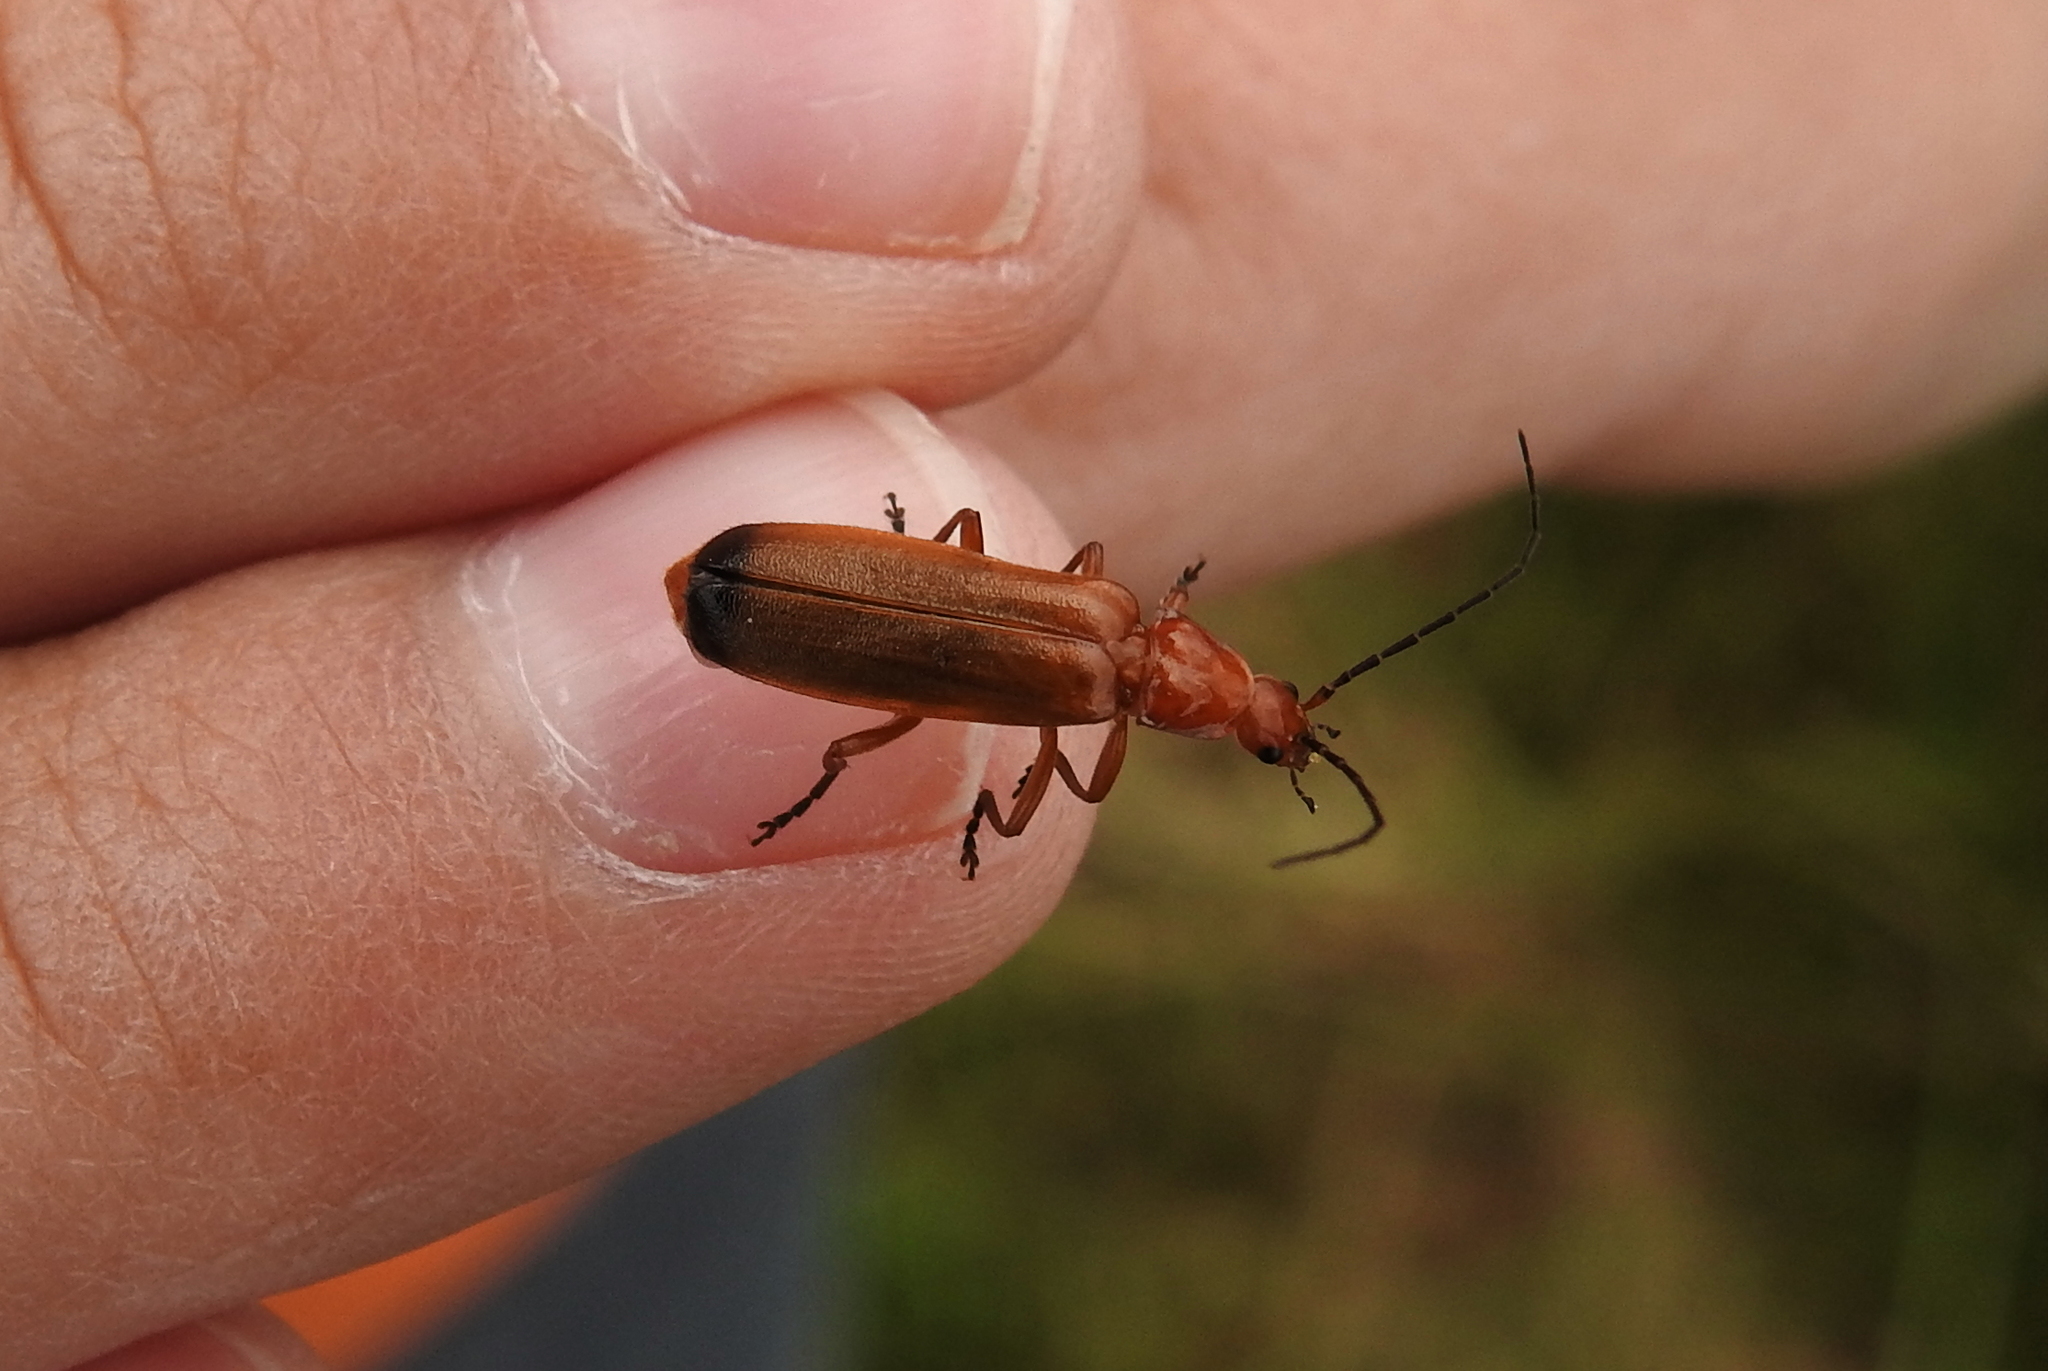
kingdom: Animalia
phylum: Arthropoda
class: Insecta
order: Coleoptera
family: Cantharidae
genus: Rhagonycha
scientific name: Rhagonycha fulva
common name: Common red soldier beetle
